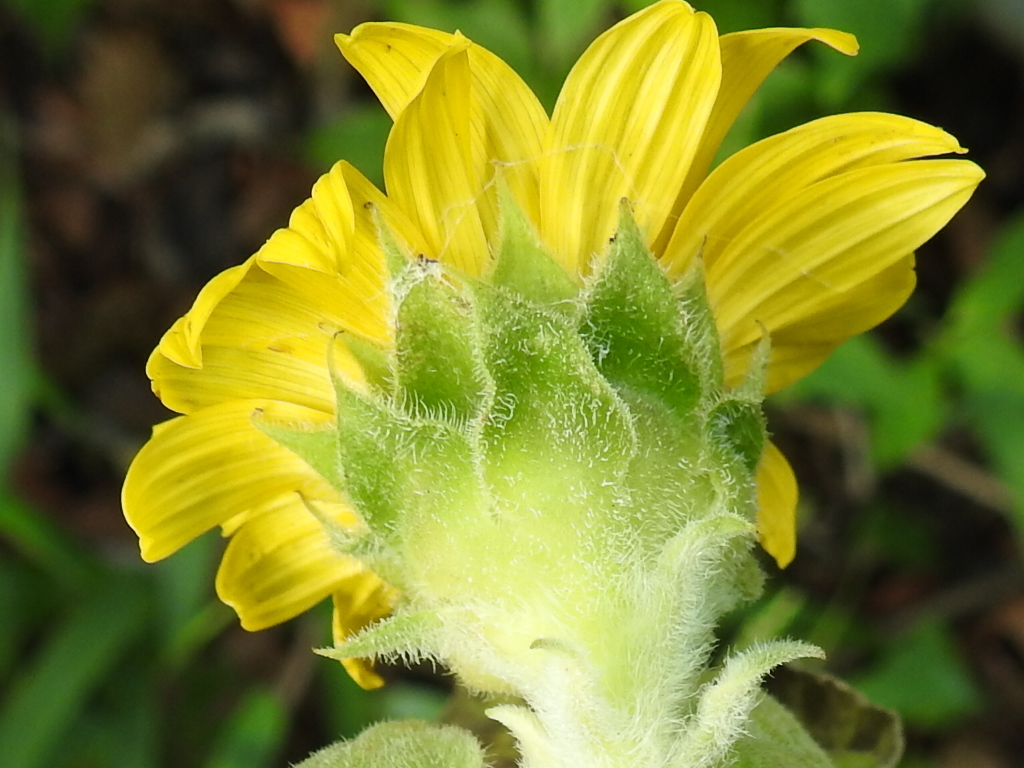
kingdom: Plantae
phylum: Tracheophyta
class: Magnoliopsida
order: Asterales
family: Asteraceae
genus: Helianthus
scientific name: Helianthus annuus
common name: Sunflower
